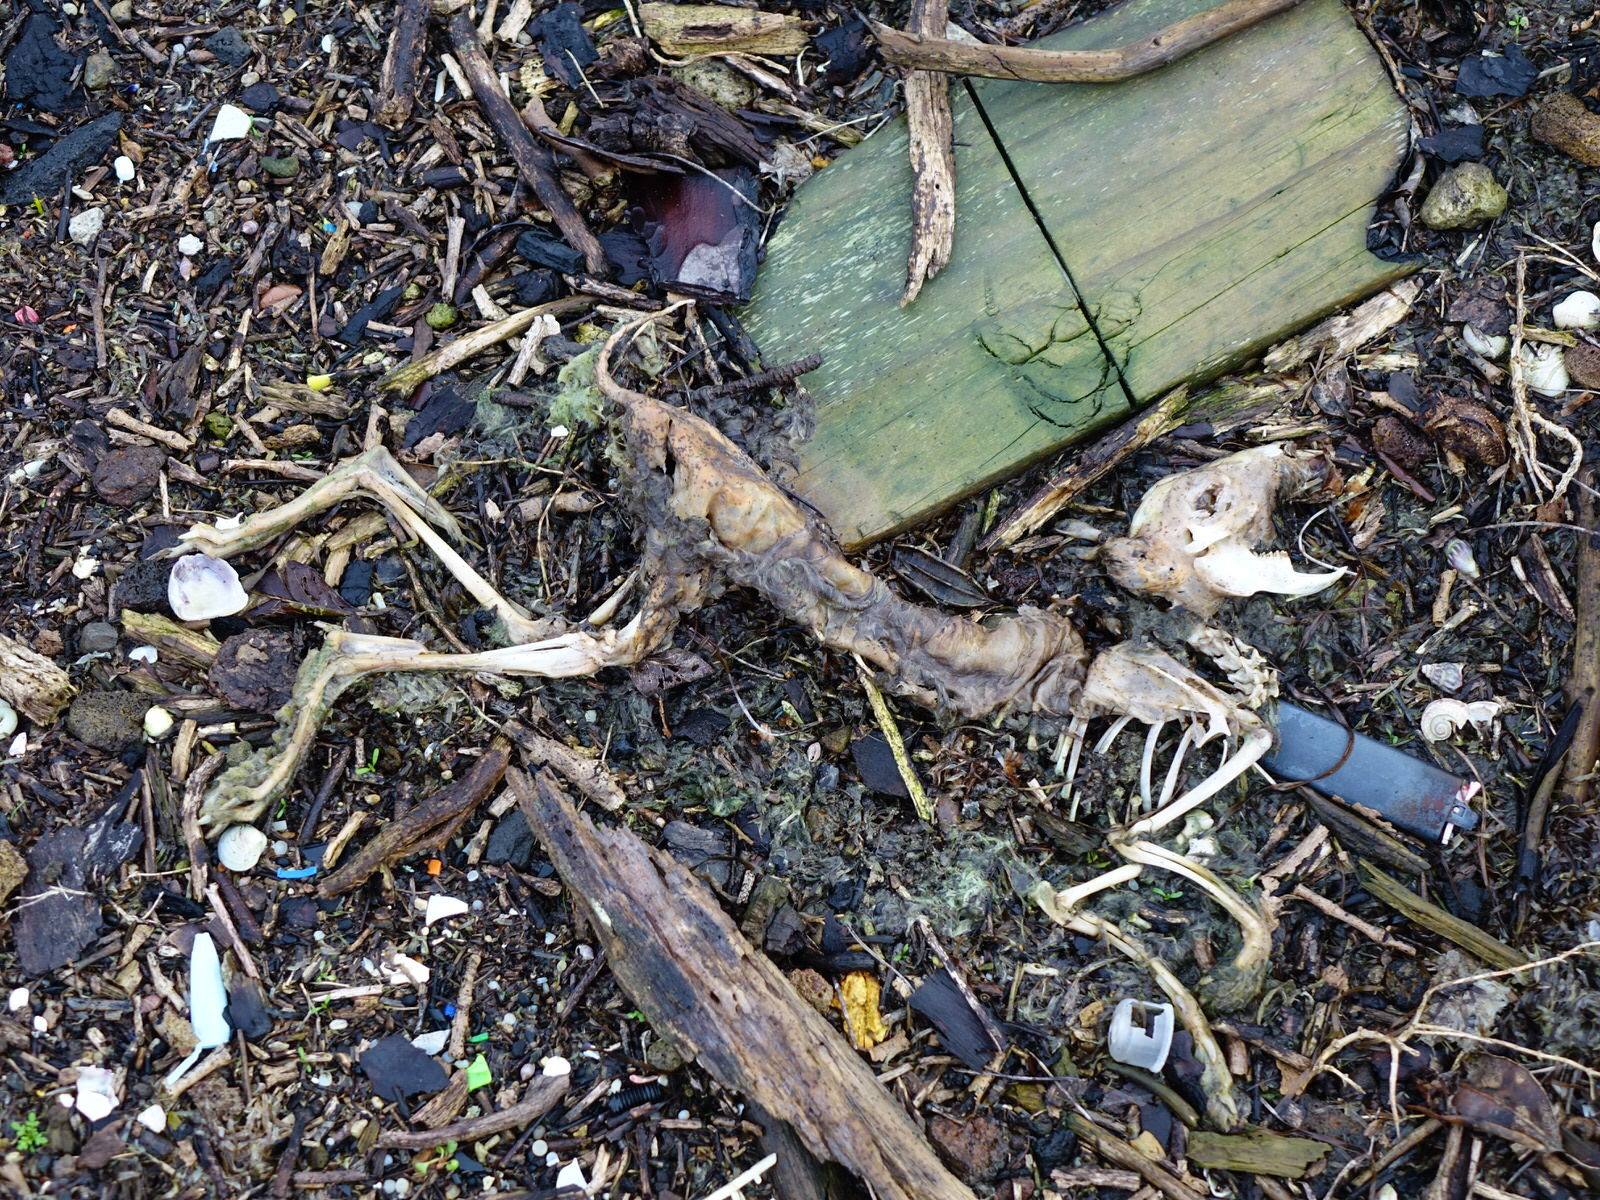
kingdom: Animalia
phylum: Chordata
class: Mammalia
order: Lagomorpha
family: Leporidae
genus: Oryctolagus
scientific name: Oryctolagus cuniculus
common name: European rabbit
